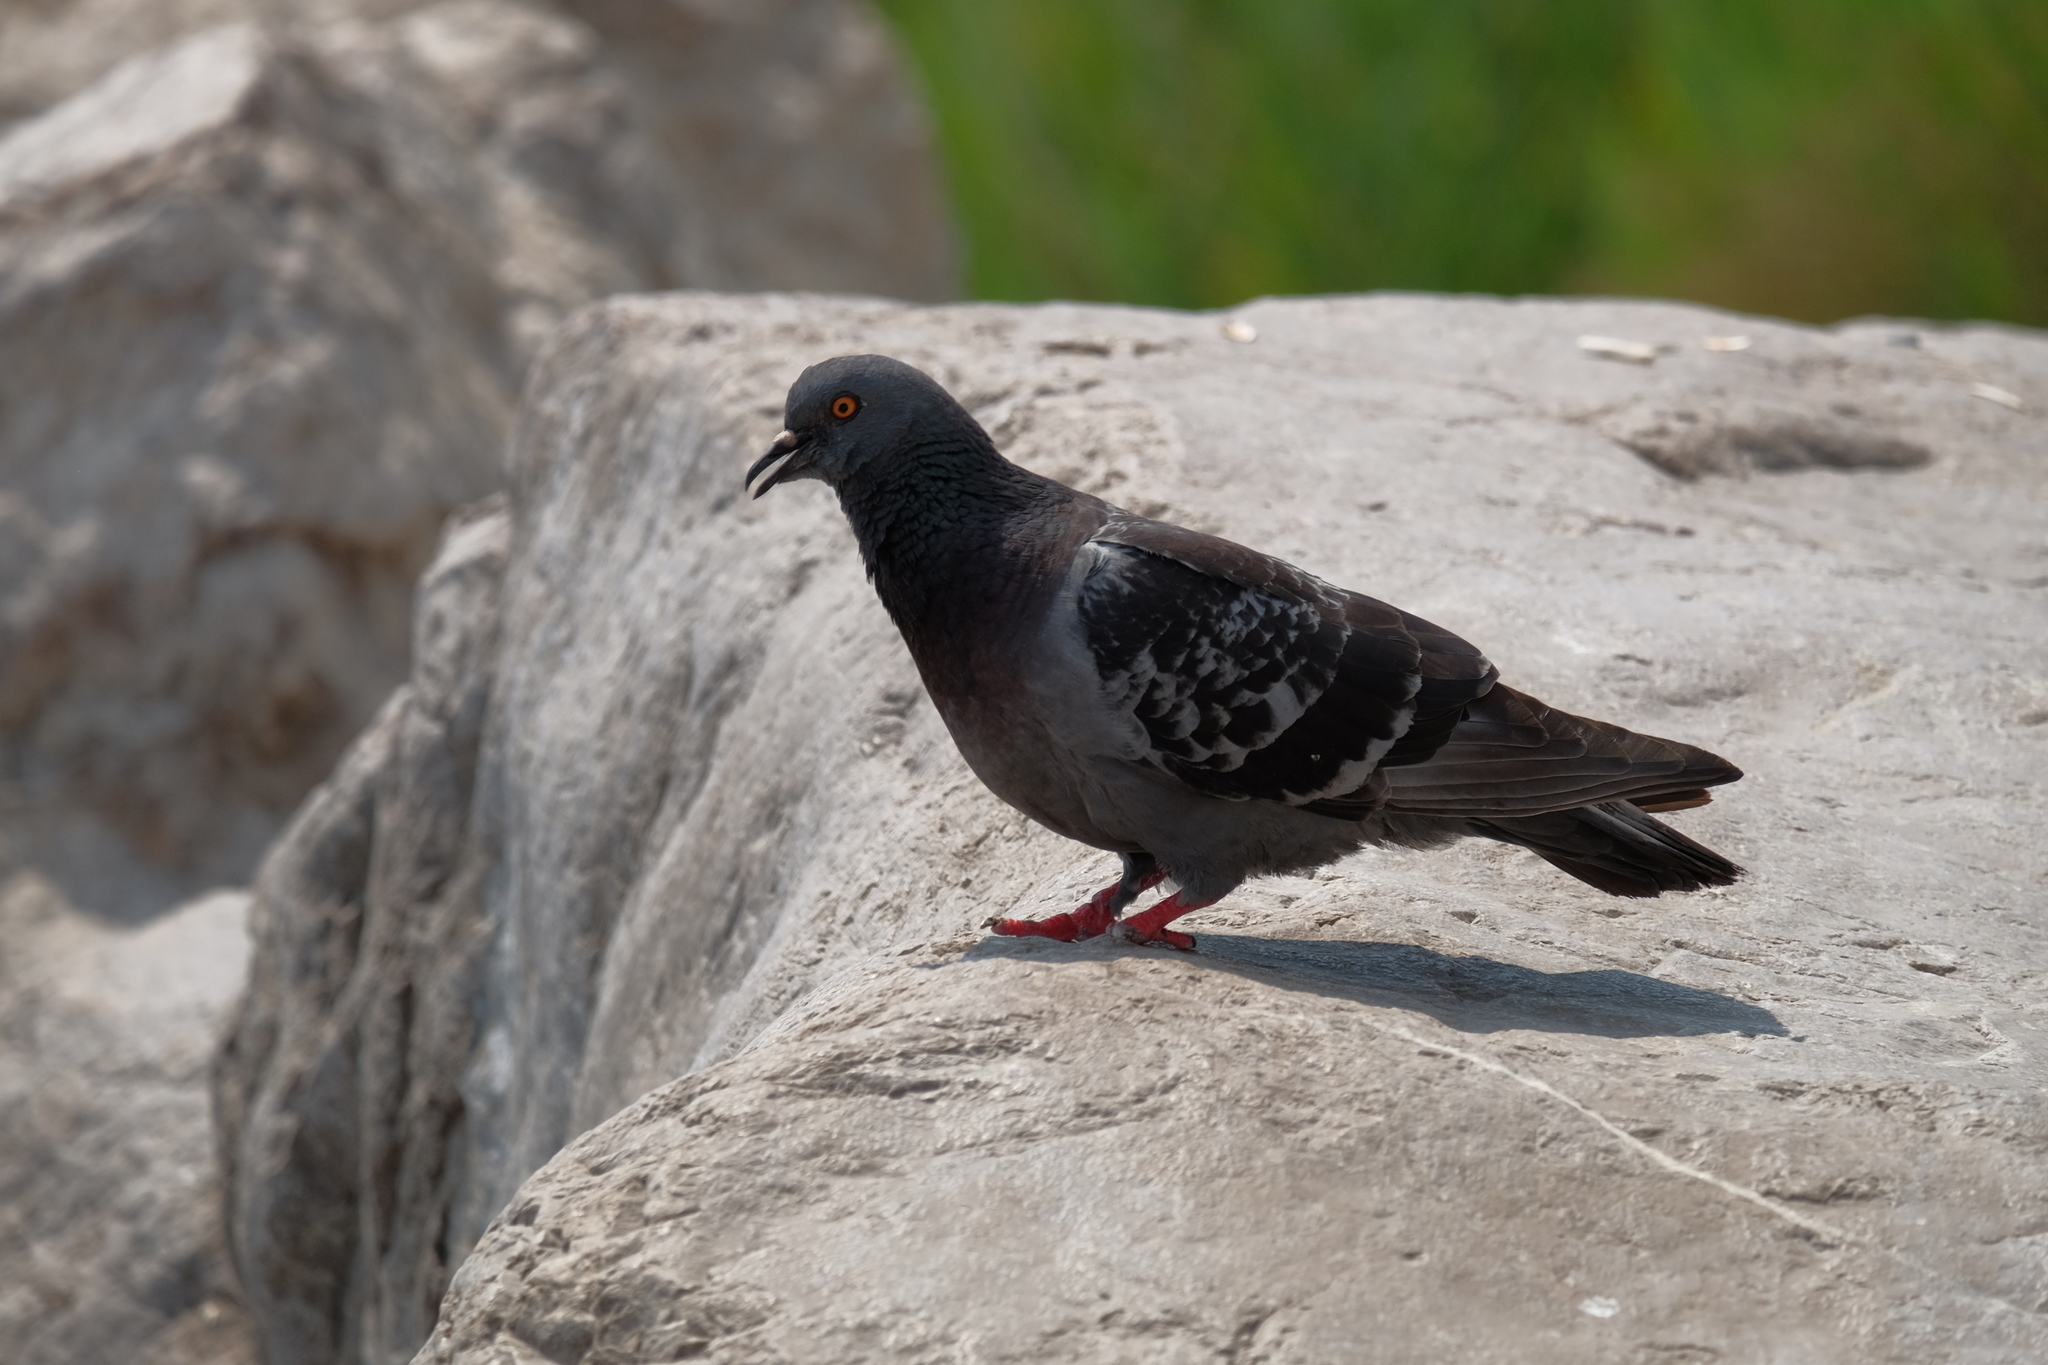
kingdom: Animalia
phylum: Chordata
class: Aves
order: Columbiformes
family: Columbidae
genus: Columba
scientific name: Columba livia
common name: Rock pigeon
